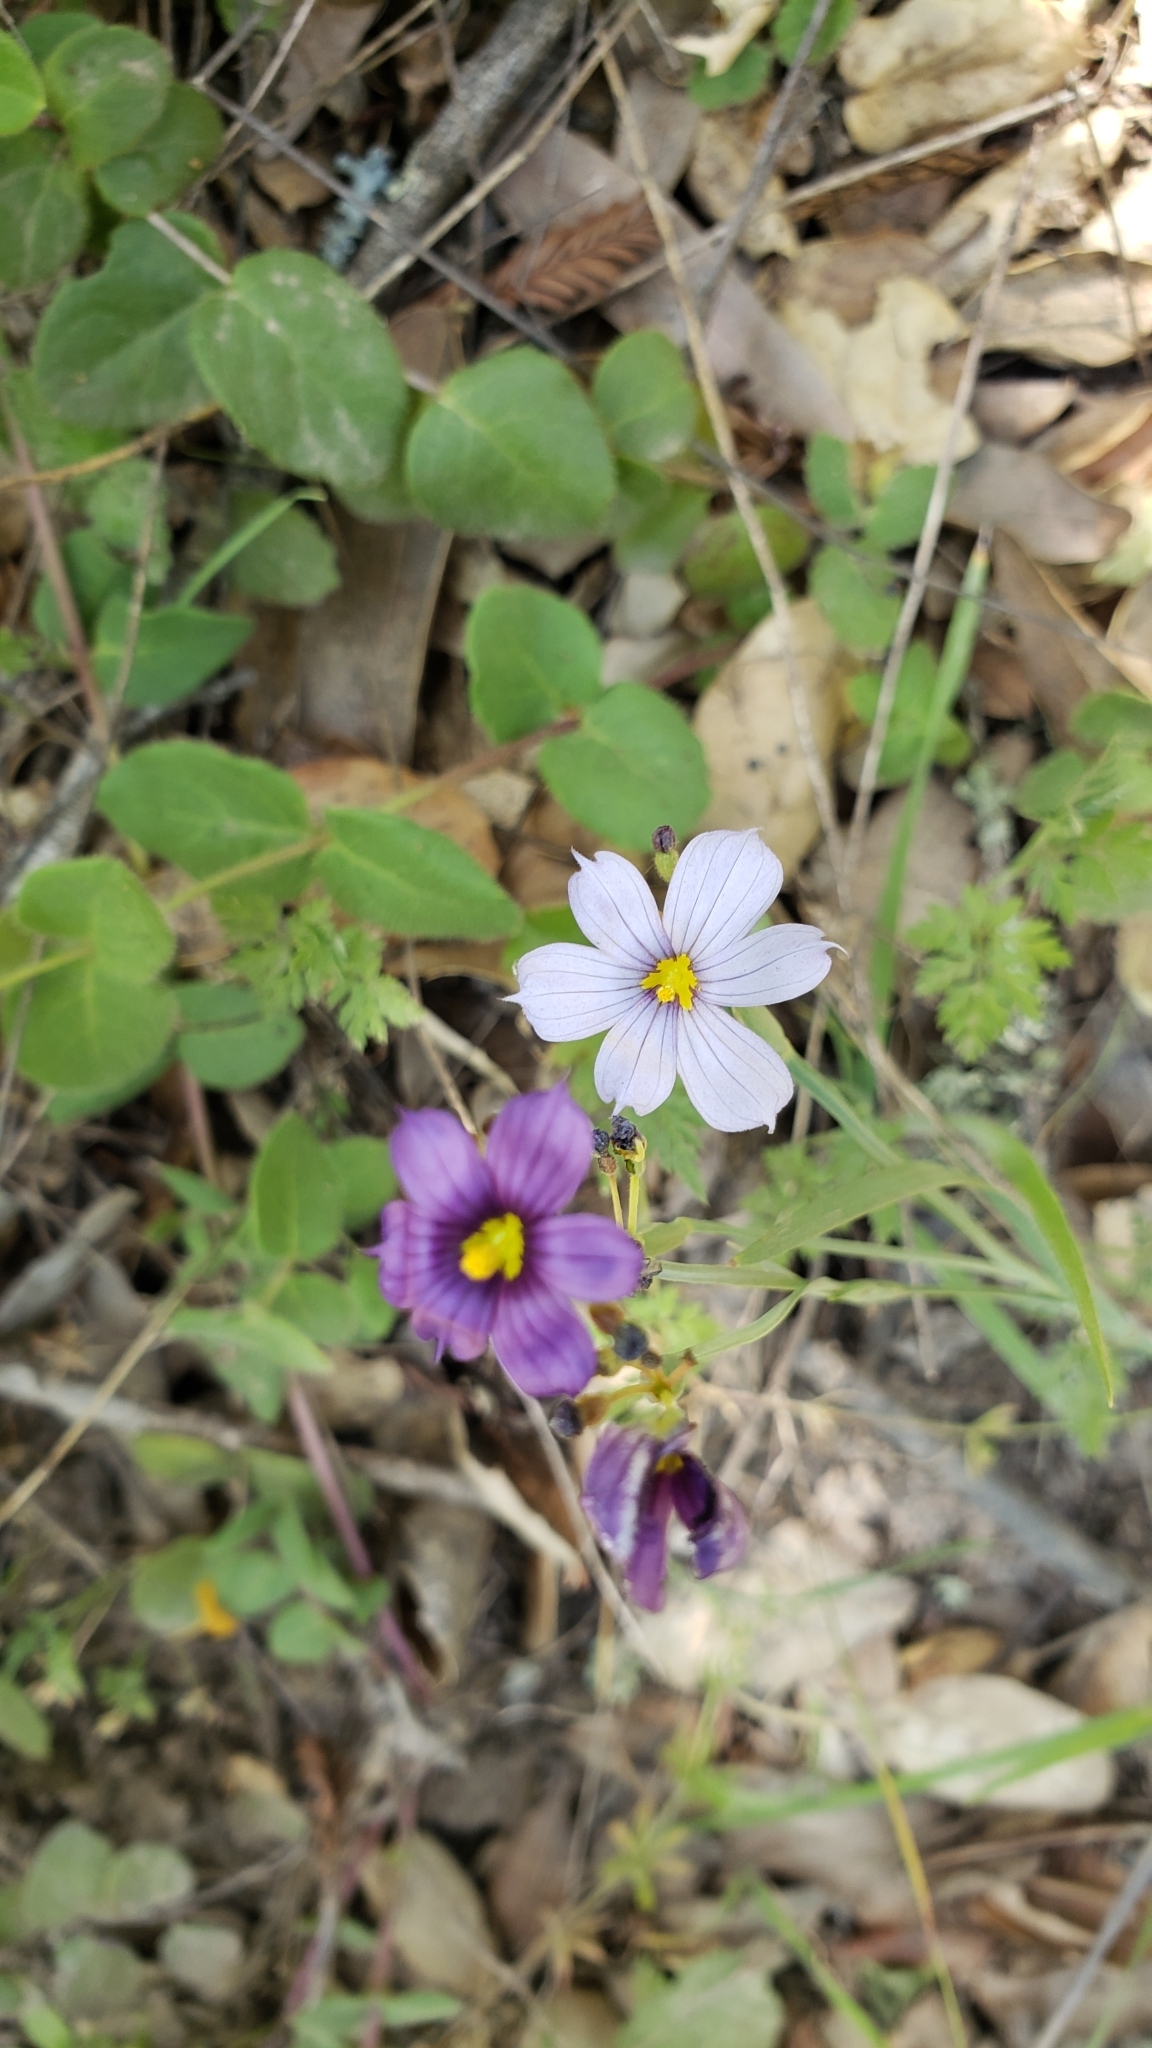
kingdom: Plantae
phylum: Tracheophyta
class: Liliopsida
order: Asparagales
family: Iridaceae
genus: Sisyrinchium
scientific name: Sisyrinchium bellum
